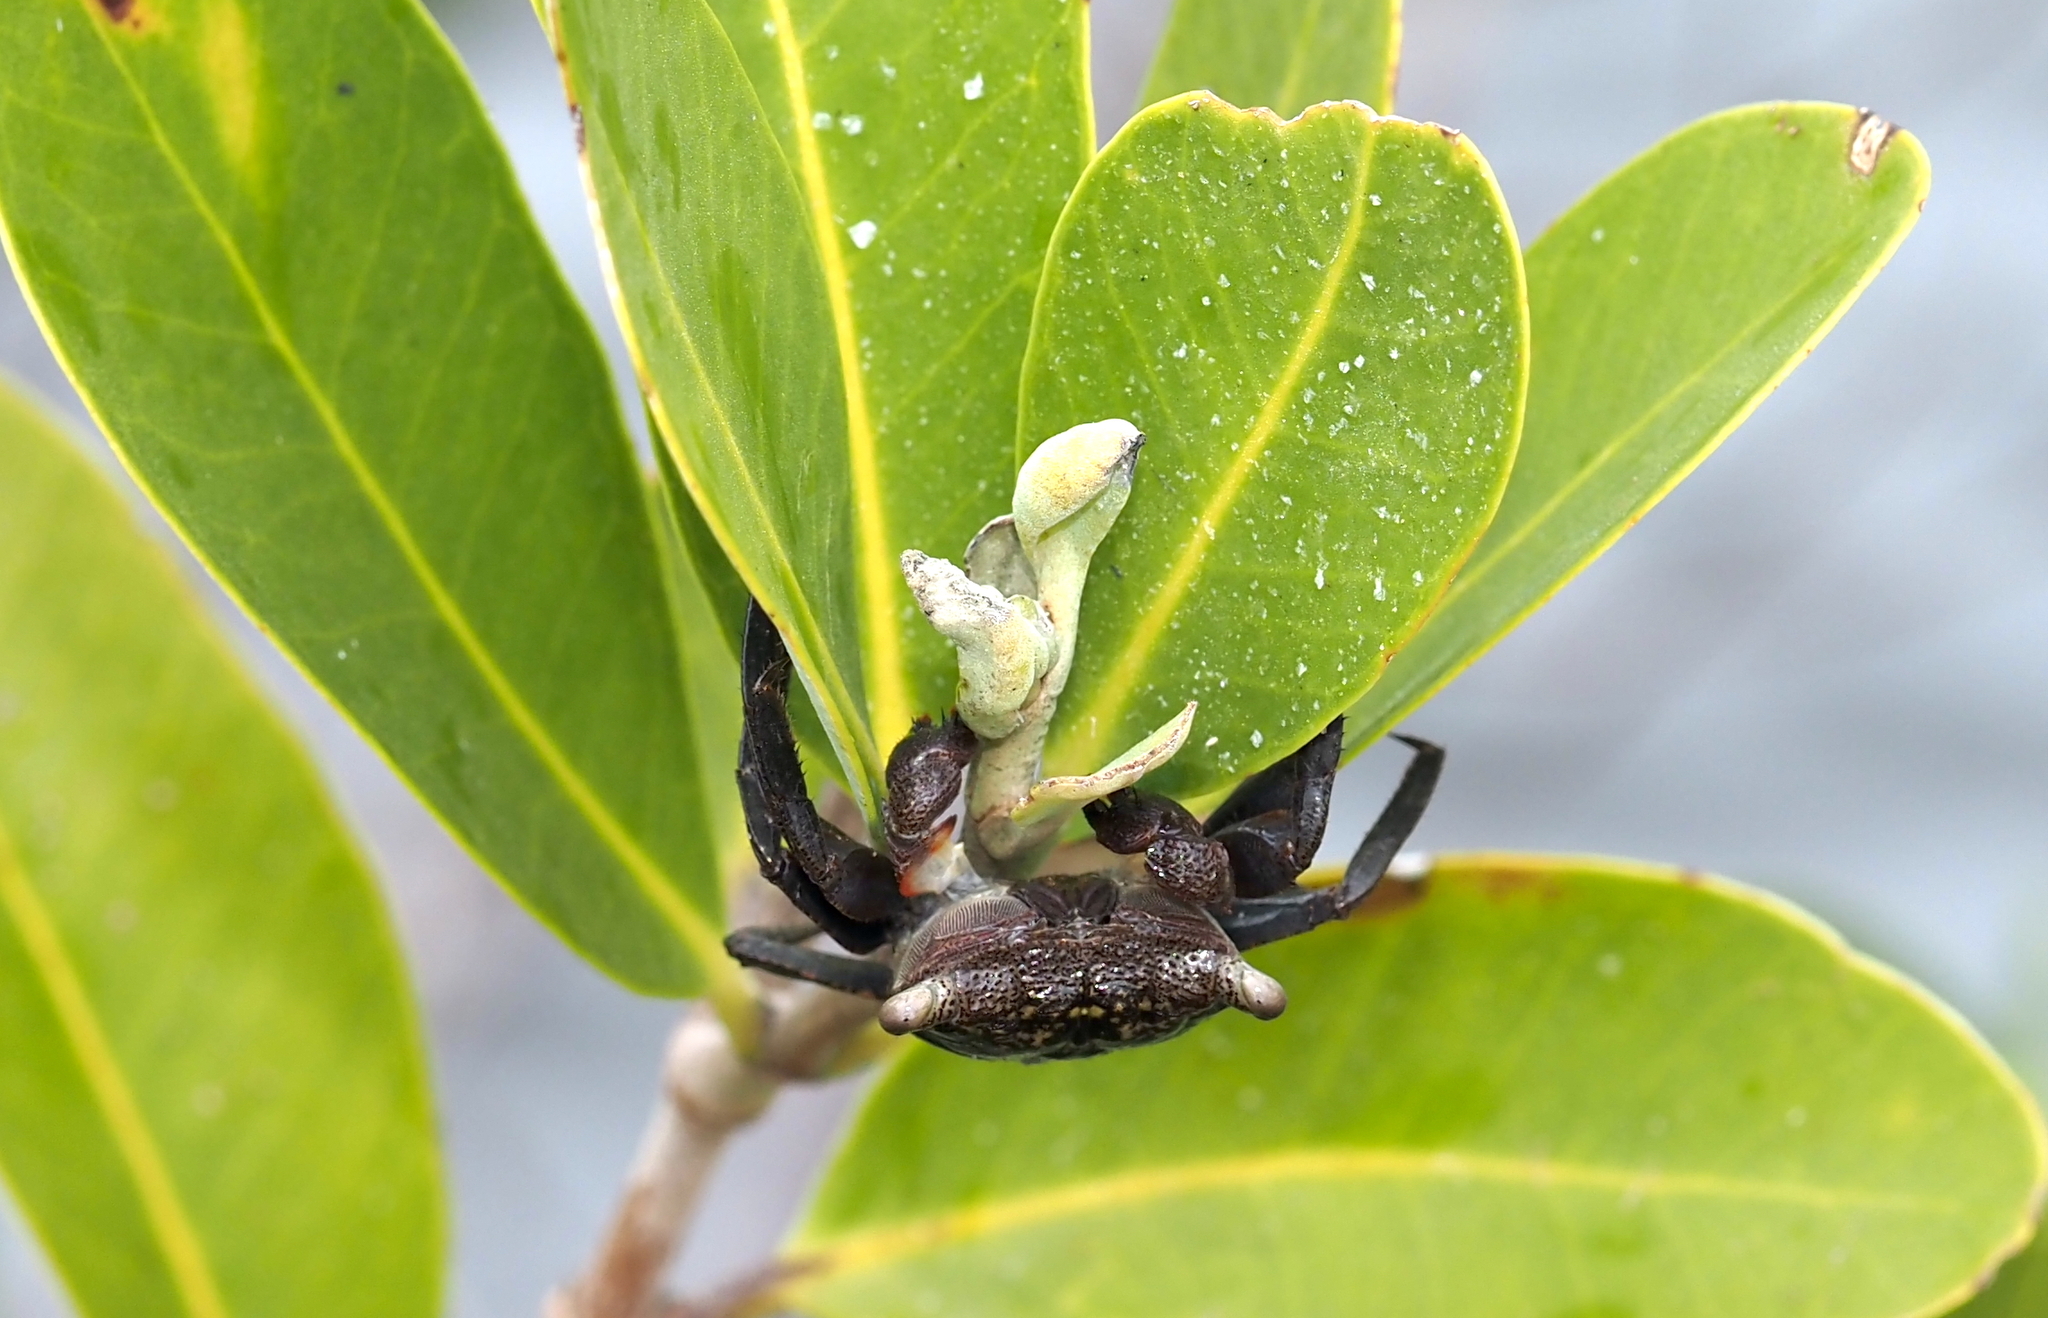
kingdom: Animalia
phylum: Arthropoda
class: Malacostraca
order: Decapoda
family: Sesarmidae
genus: Aratus
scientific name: Aratus pisonii
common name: Mangrove crab
